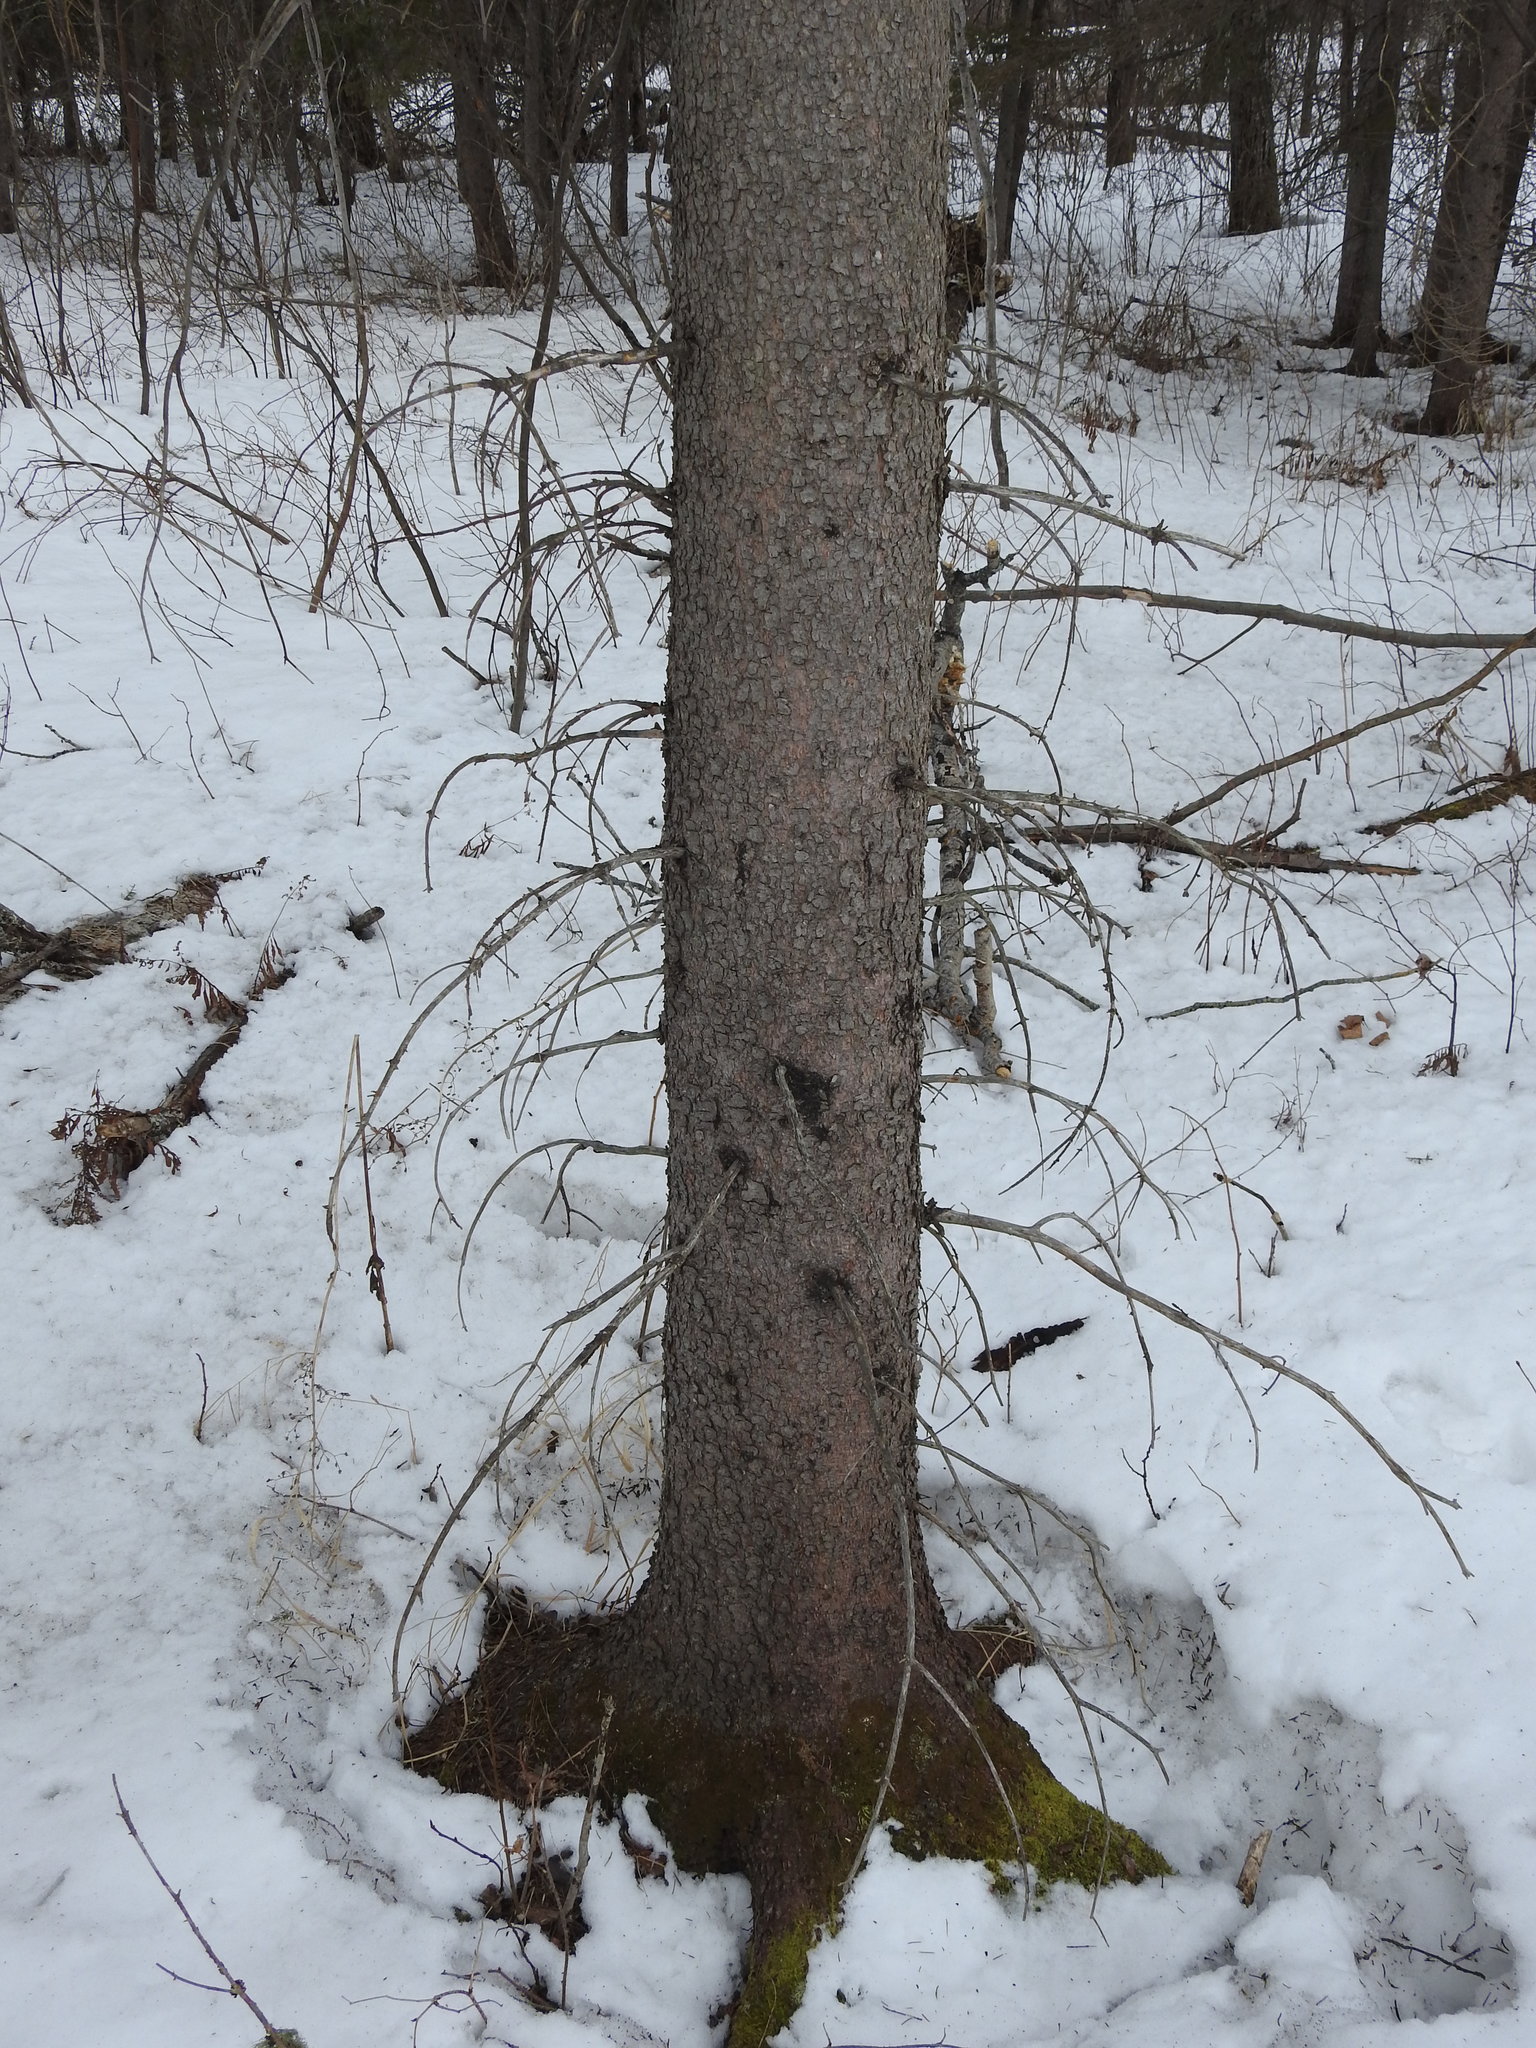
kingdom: Plantae
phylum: Tracheophyta
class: Pinopsida
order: Pinales
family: Pinaceae
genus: Picea
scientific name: Picea glauca
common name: White spruce
